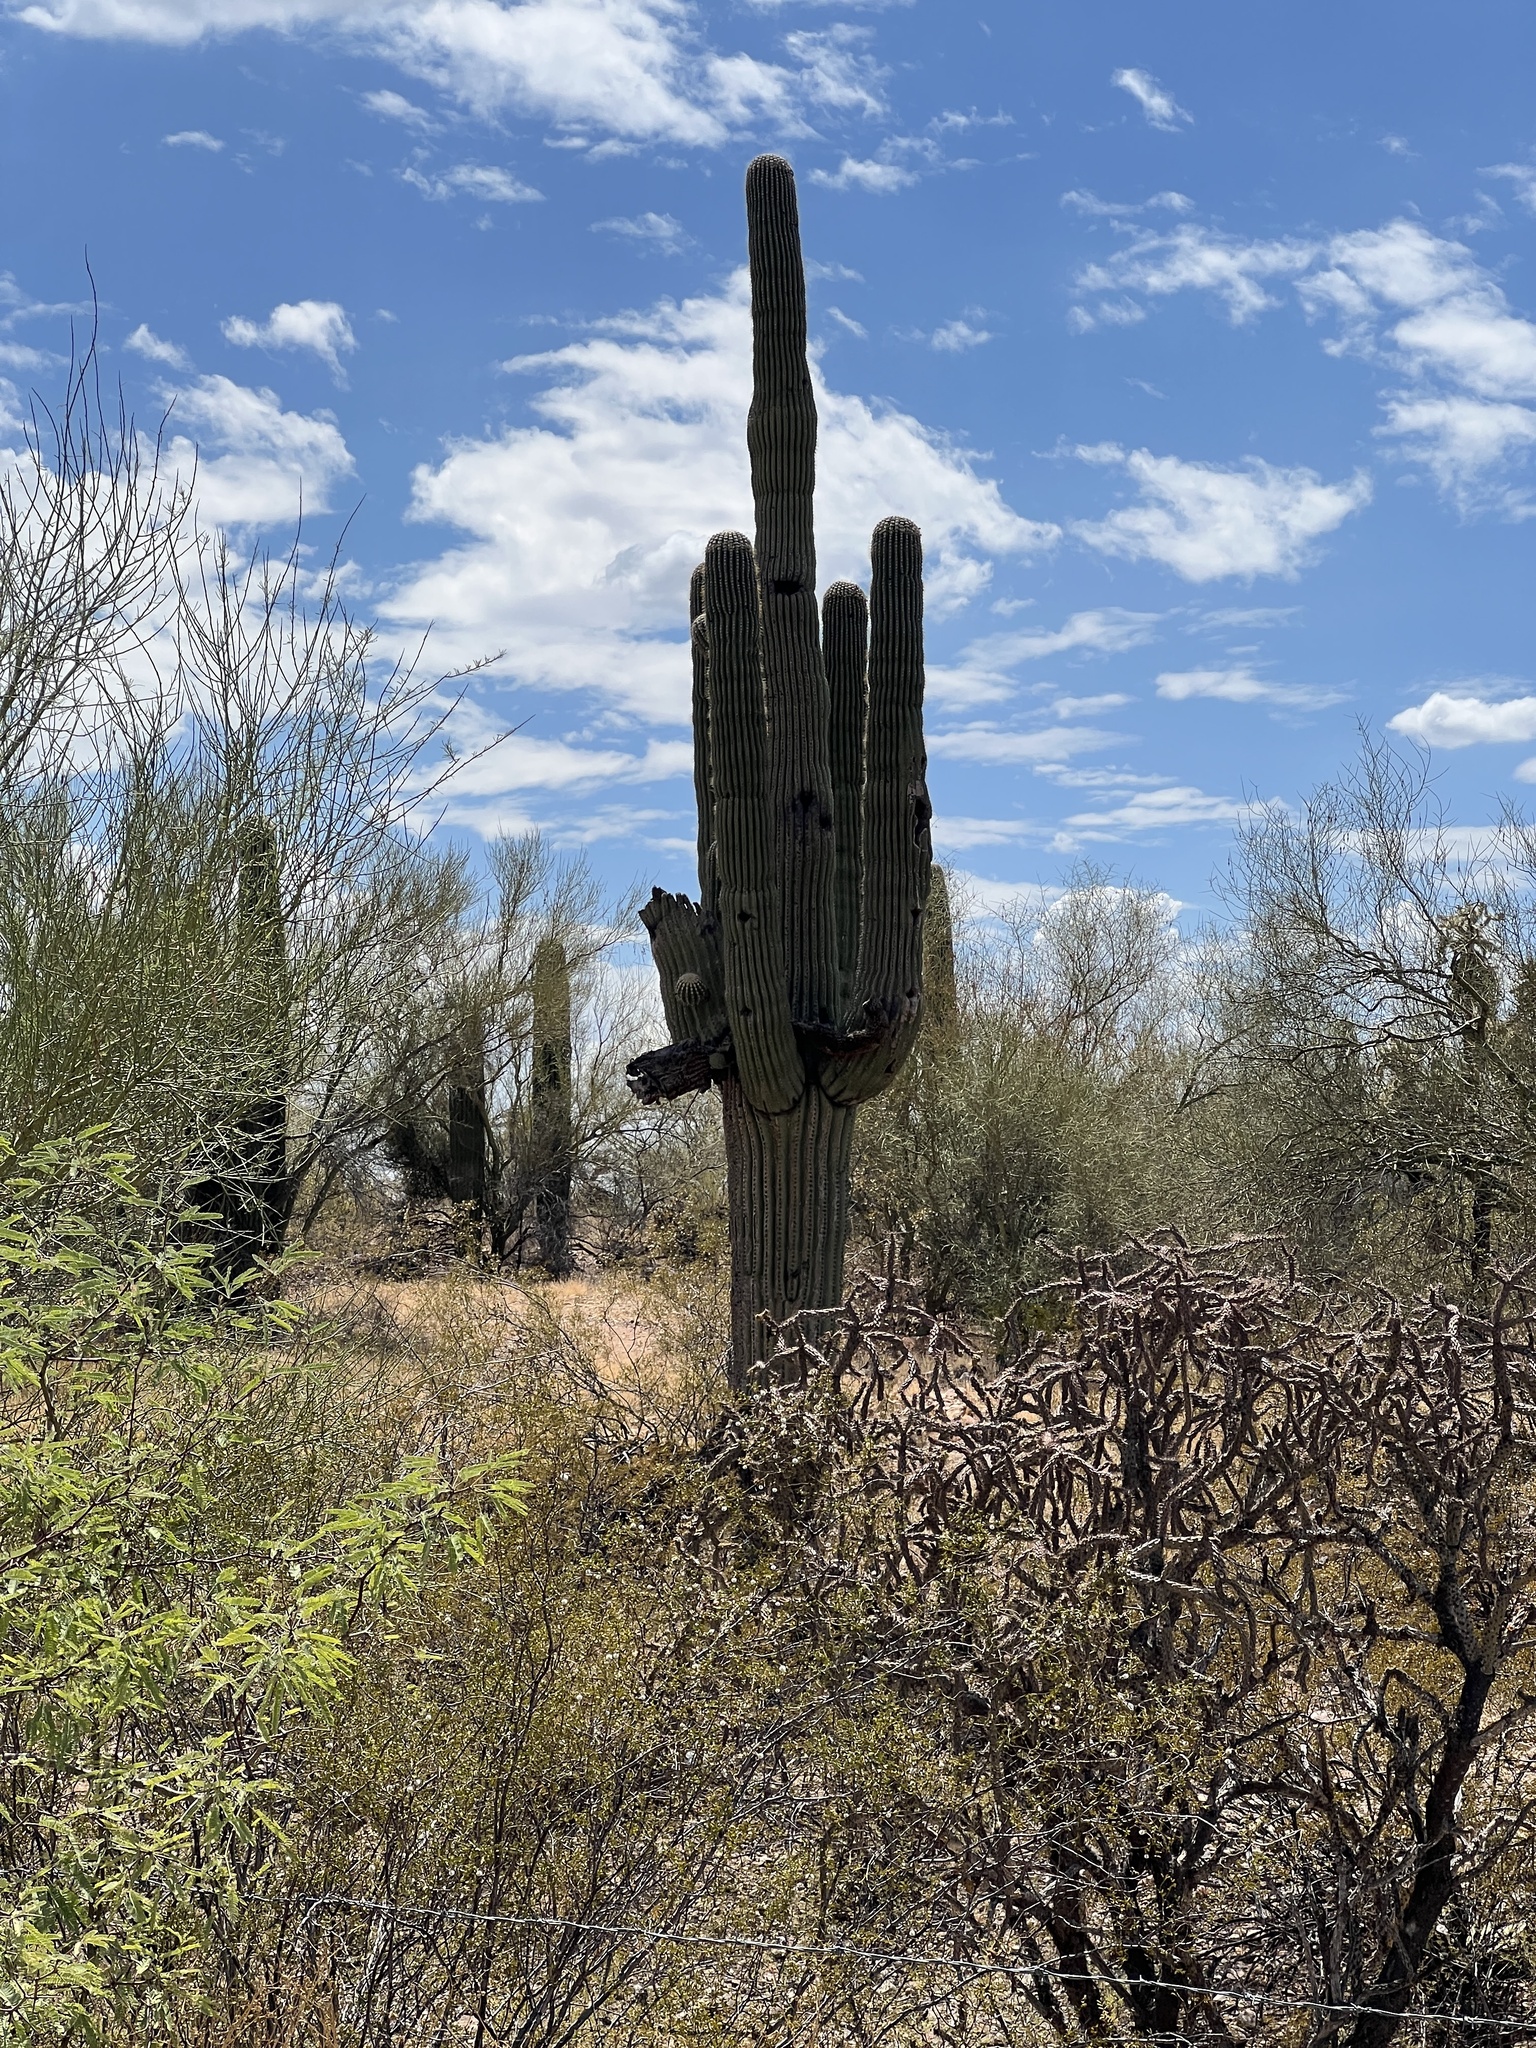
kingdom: Plantae
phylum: Tracheophyta
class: Magnoliopsida
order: Caryophyllales
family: Cactaceae
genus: Carnegiea
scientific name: Carnegiea gigantea
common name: Saguaro
